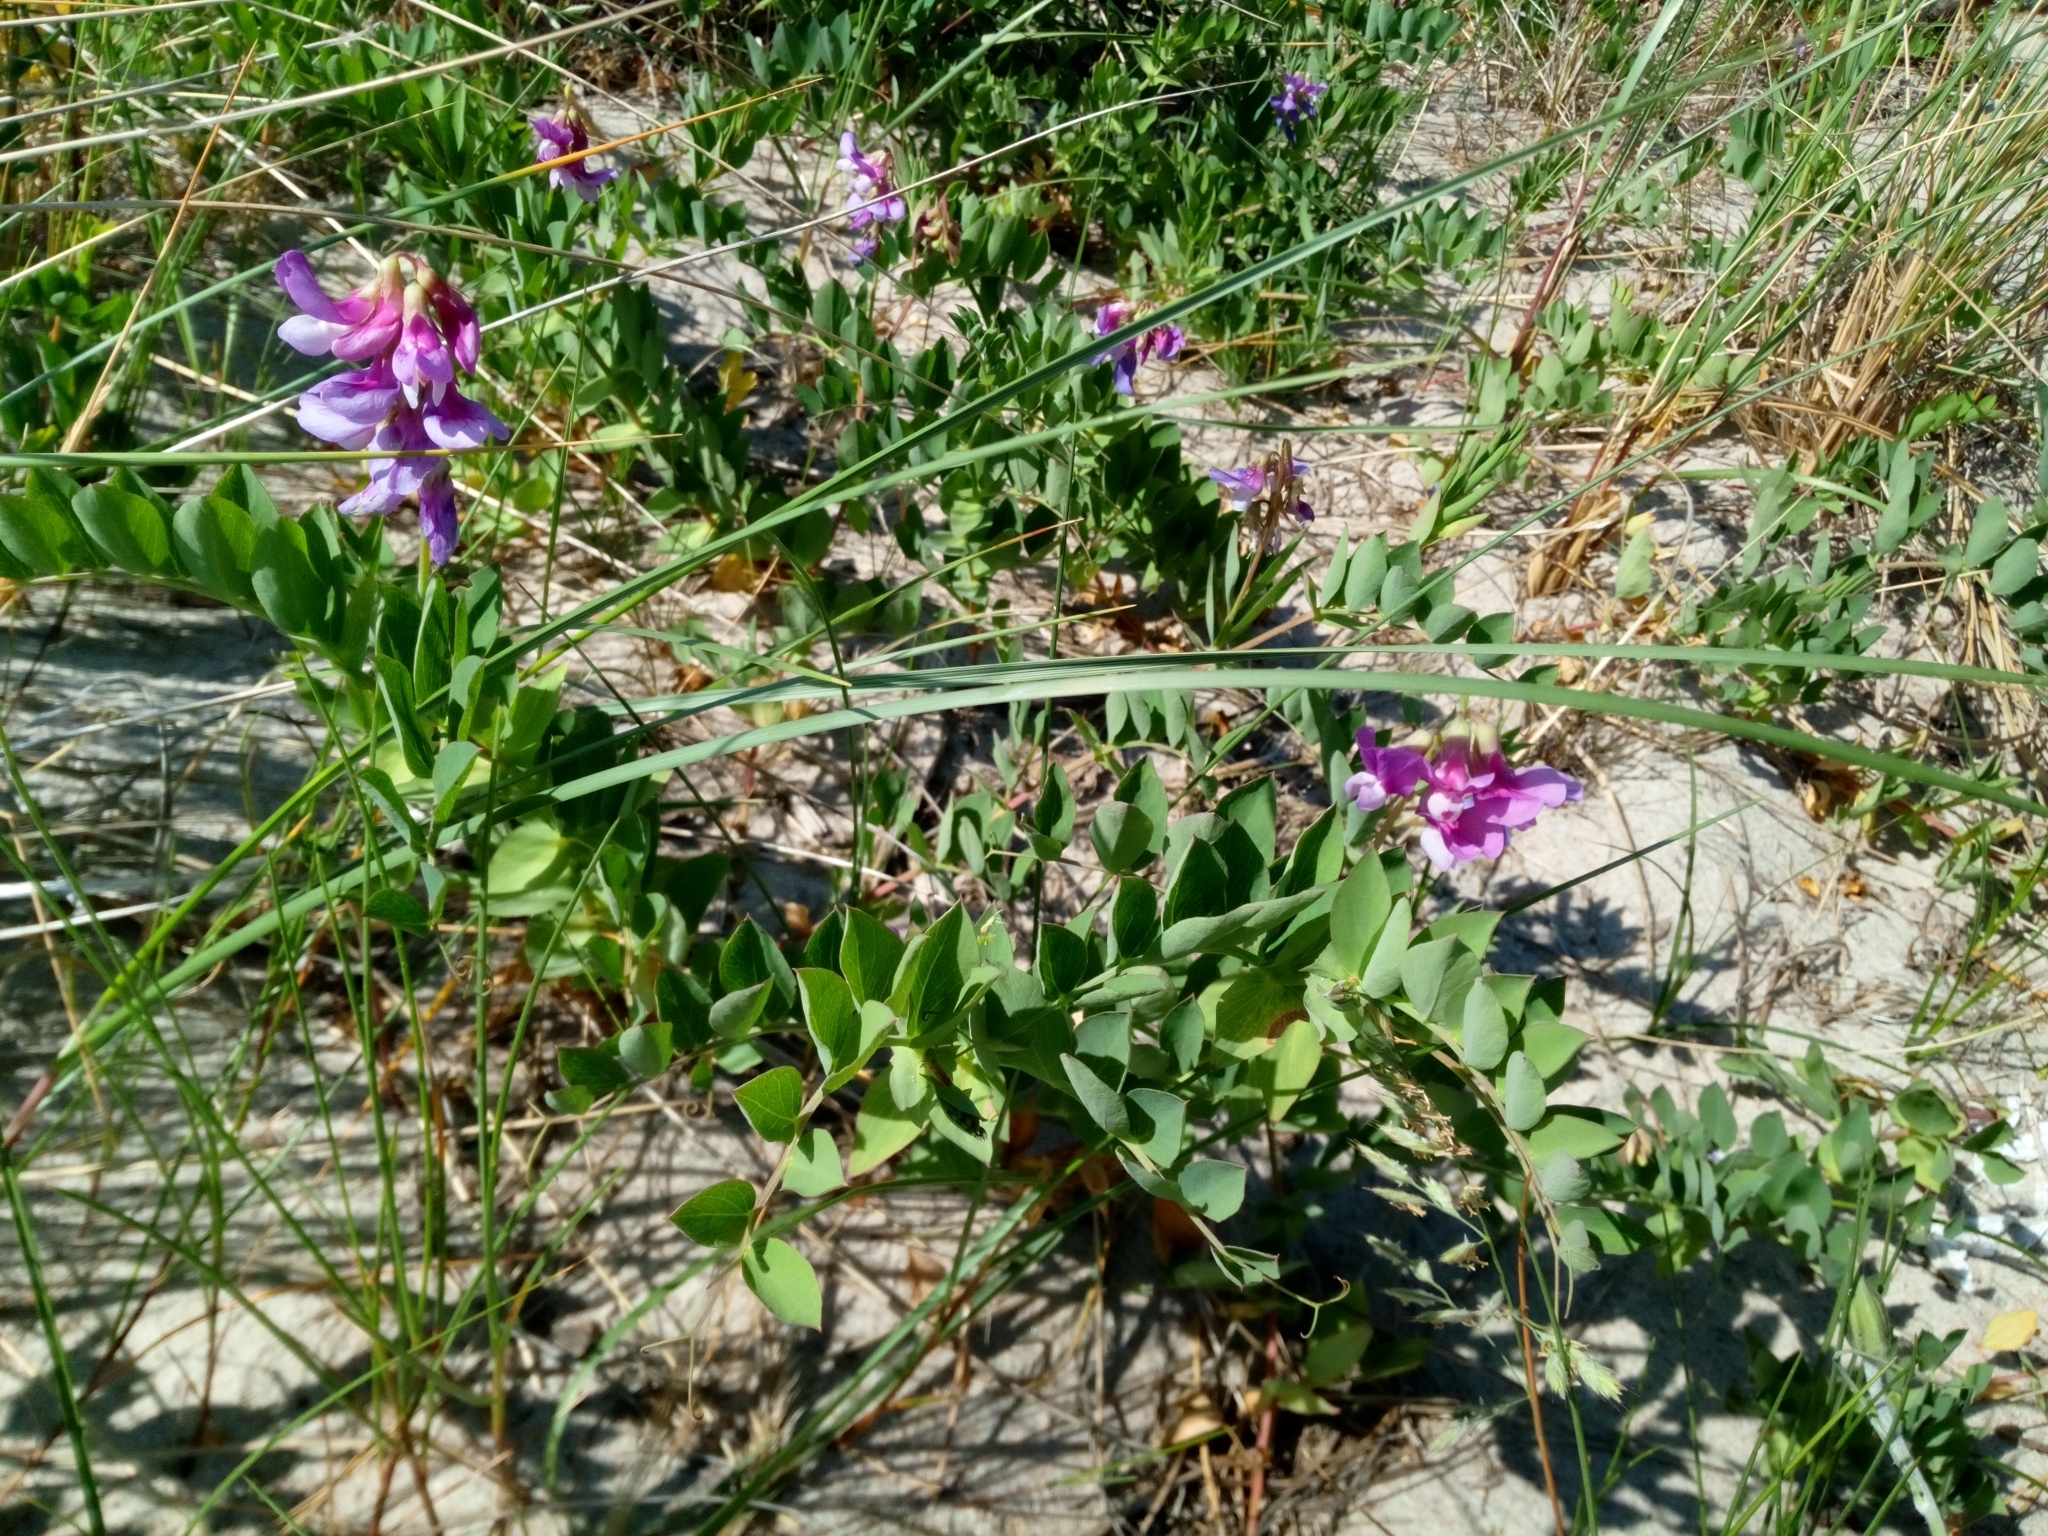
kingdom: Plantae
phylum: Tracheophyta
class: Magnoliopsida
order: Fabales
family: Fabaceae
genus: Lathyrus
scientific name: Lathyrus japonicus
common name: Sea pea
